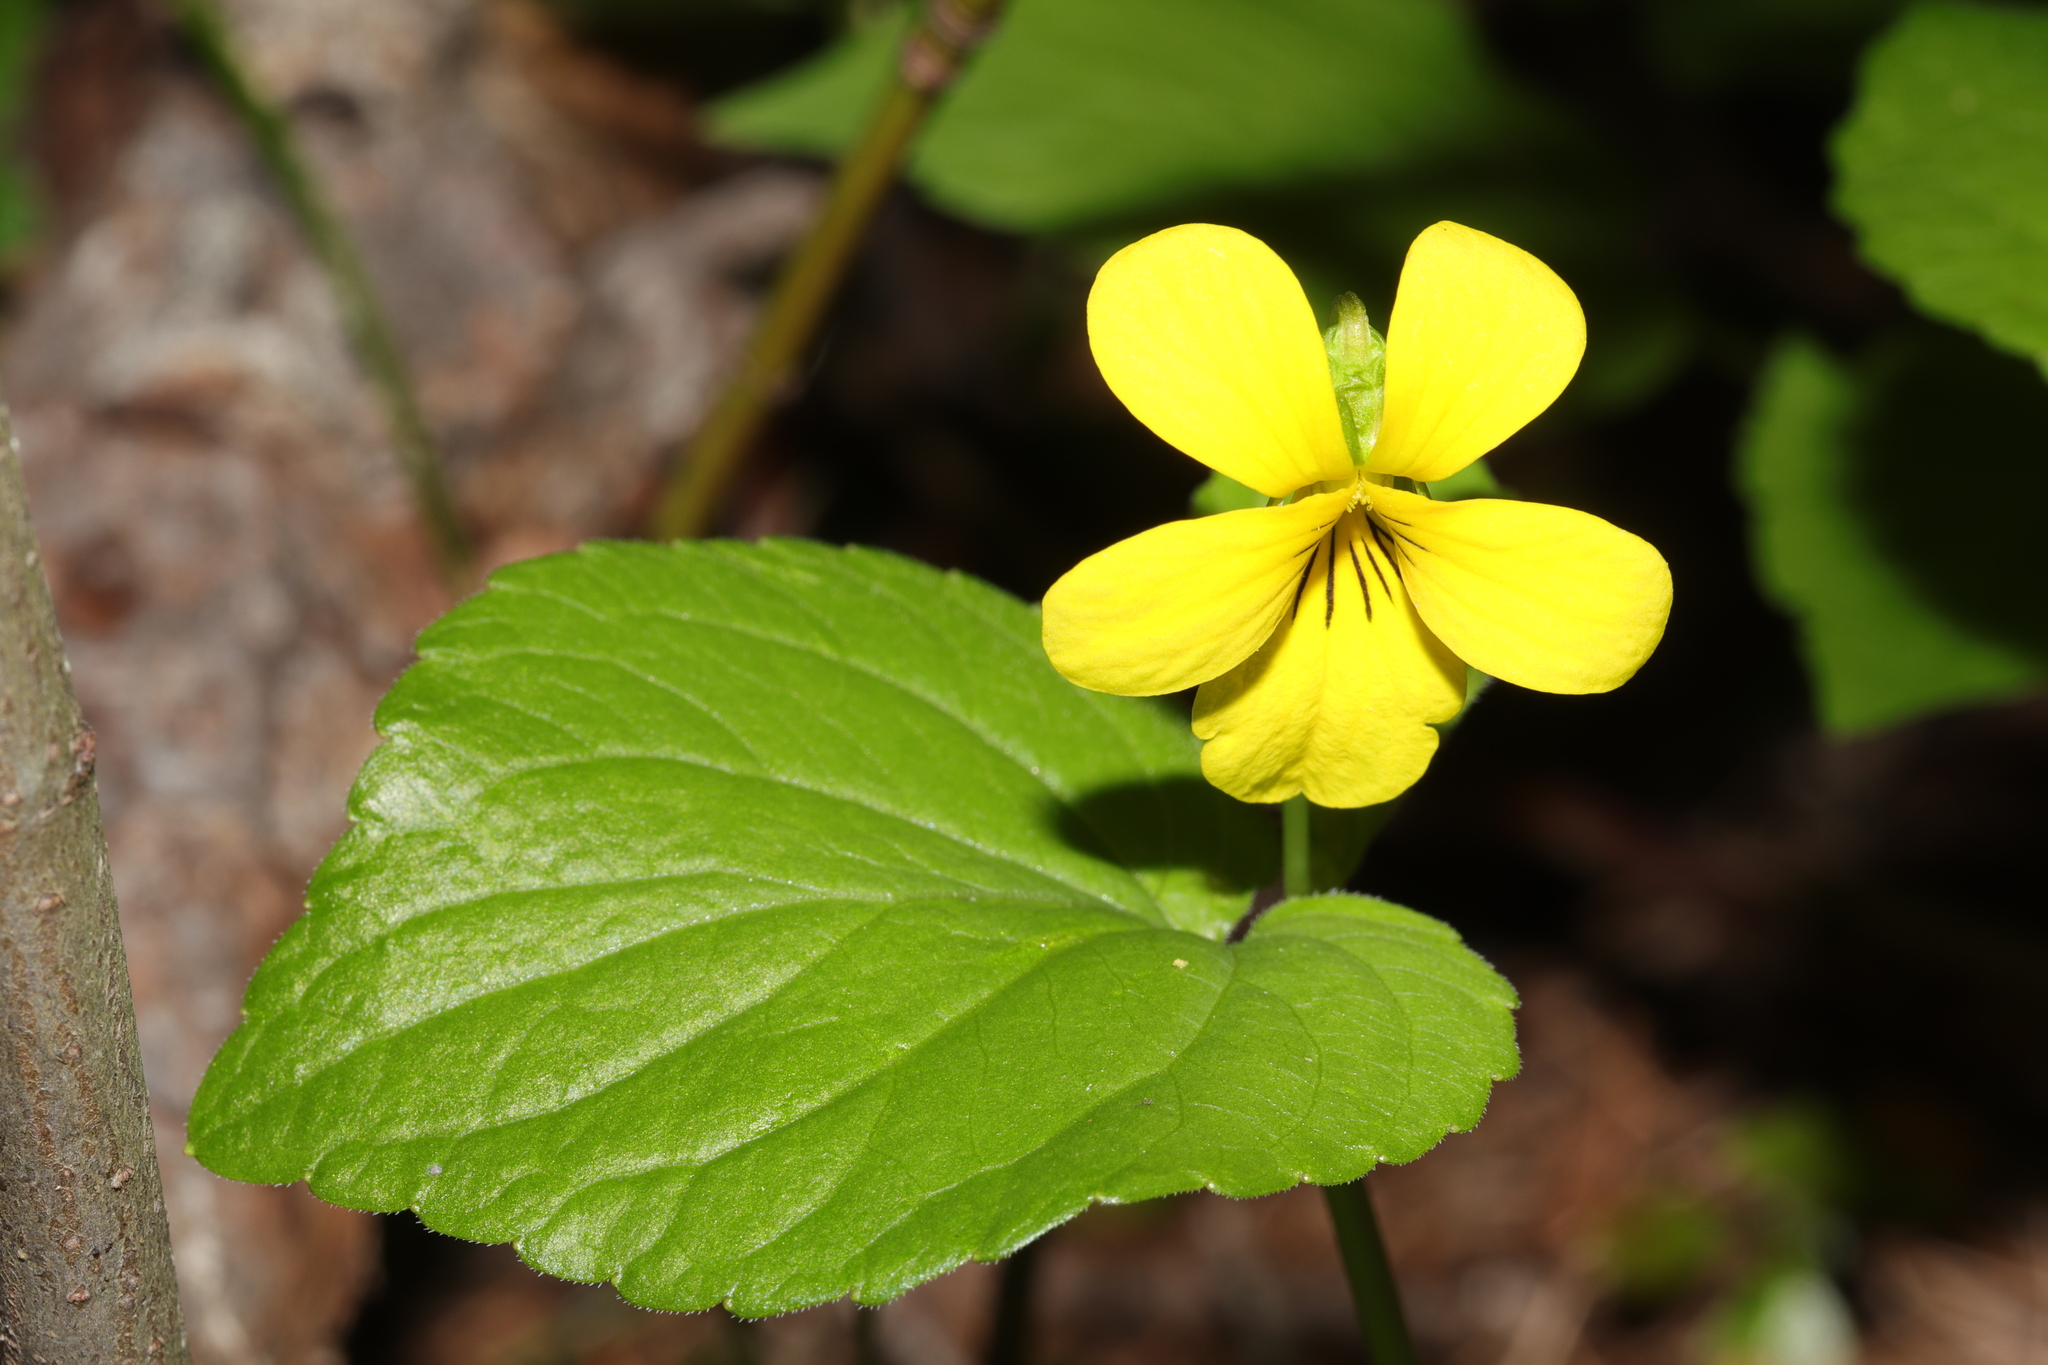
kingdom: Plantae
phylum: Tracheophyta
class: Magnoliopsida
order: Malpighiales
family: Violaceae
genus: Viola
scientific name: Viola glabella
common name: Stream violet
